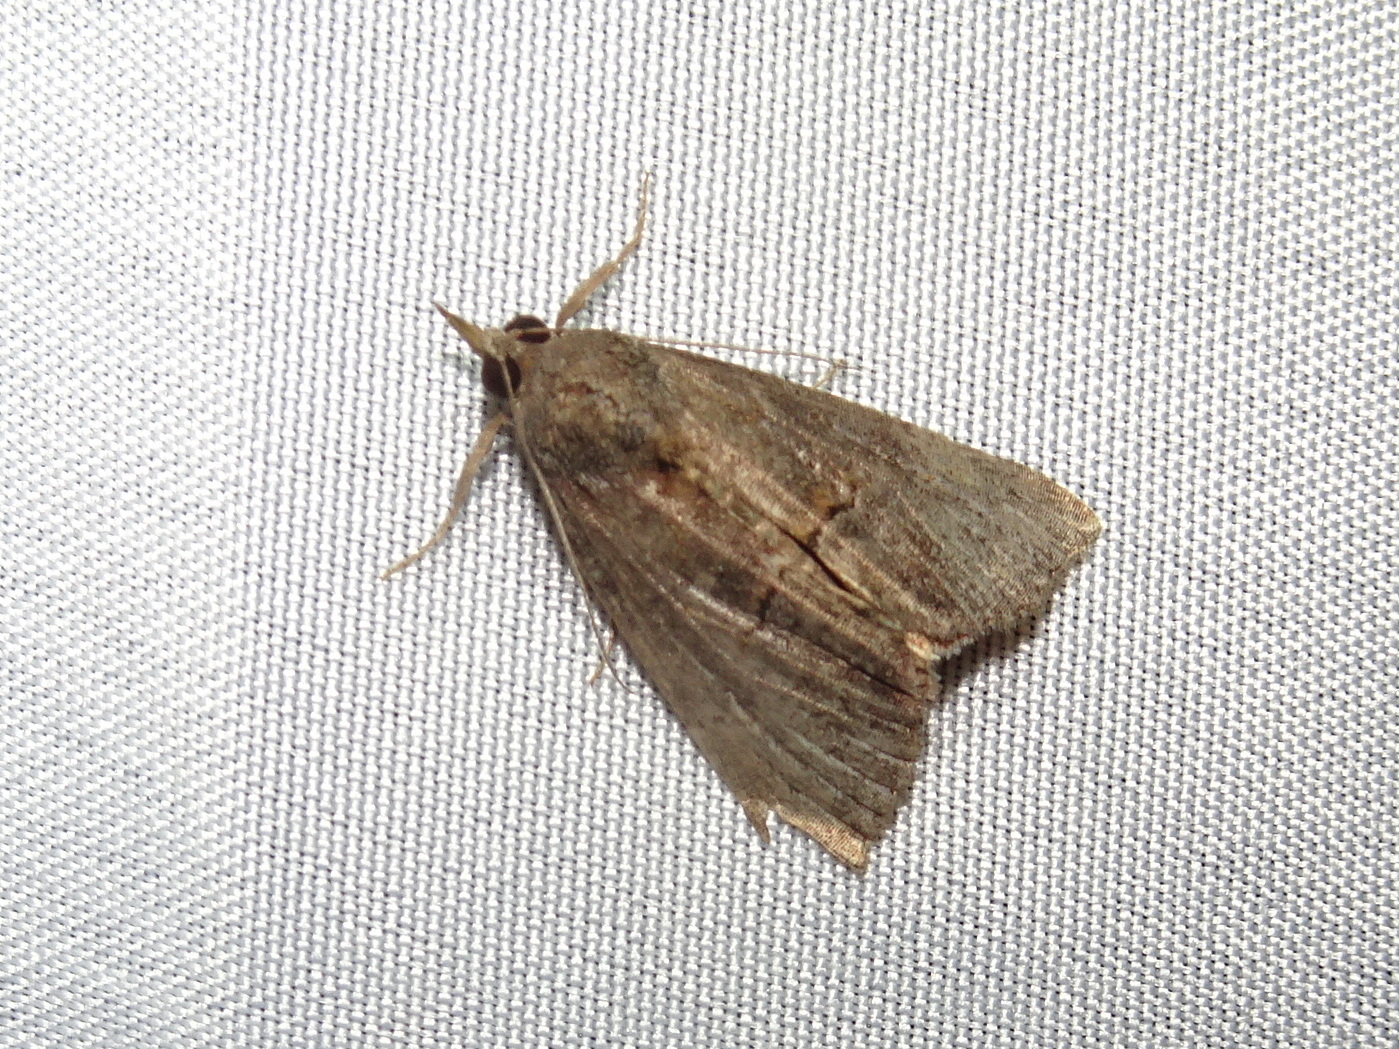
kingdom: Animalia
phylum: Arthropoda
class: Insecta
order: Lepidoptera
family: Erebidae
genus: Hypena
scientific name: Hypena scabra
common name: Green cloverworm
